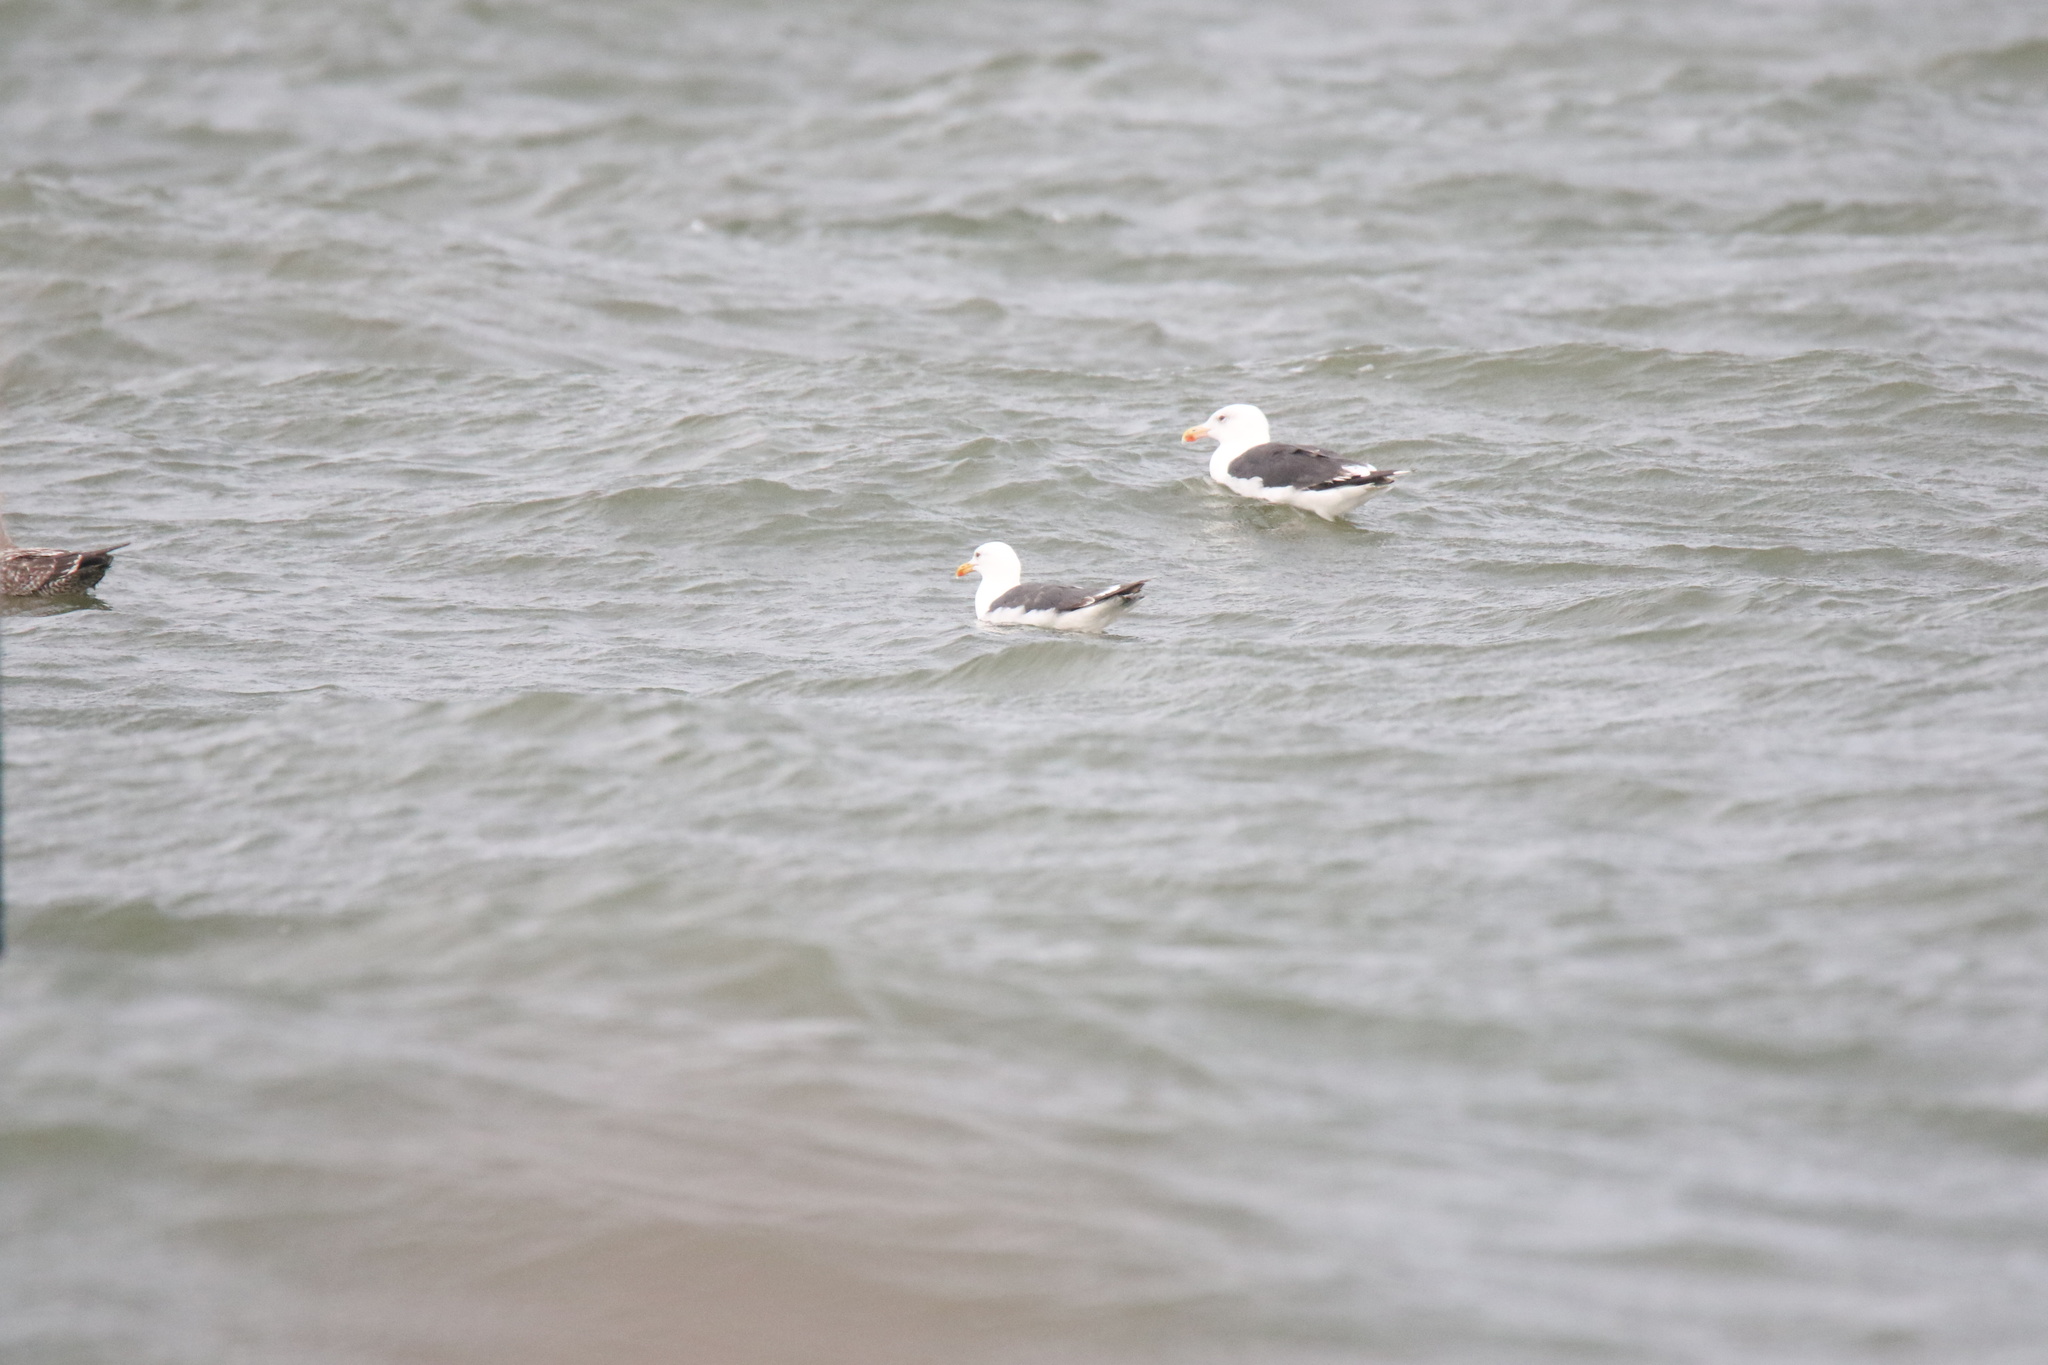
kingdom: Animalia
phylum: Chordata
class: Aves
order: Charadriiformes
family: Laridae
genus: Larus
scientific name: Larus fuscus
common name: Lesser black-backed gull
